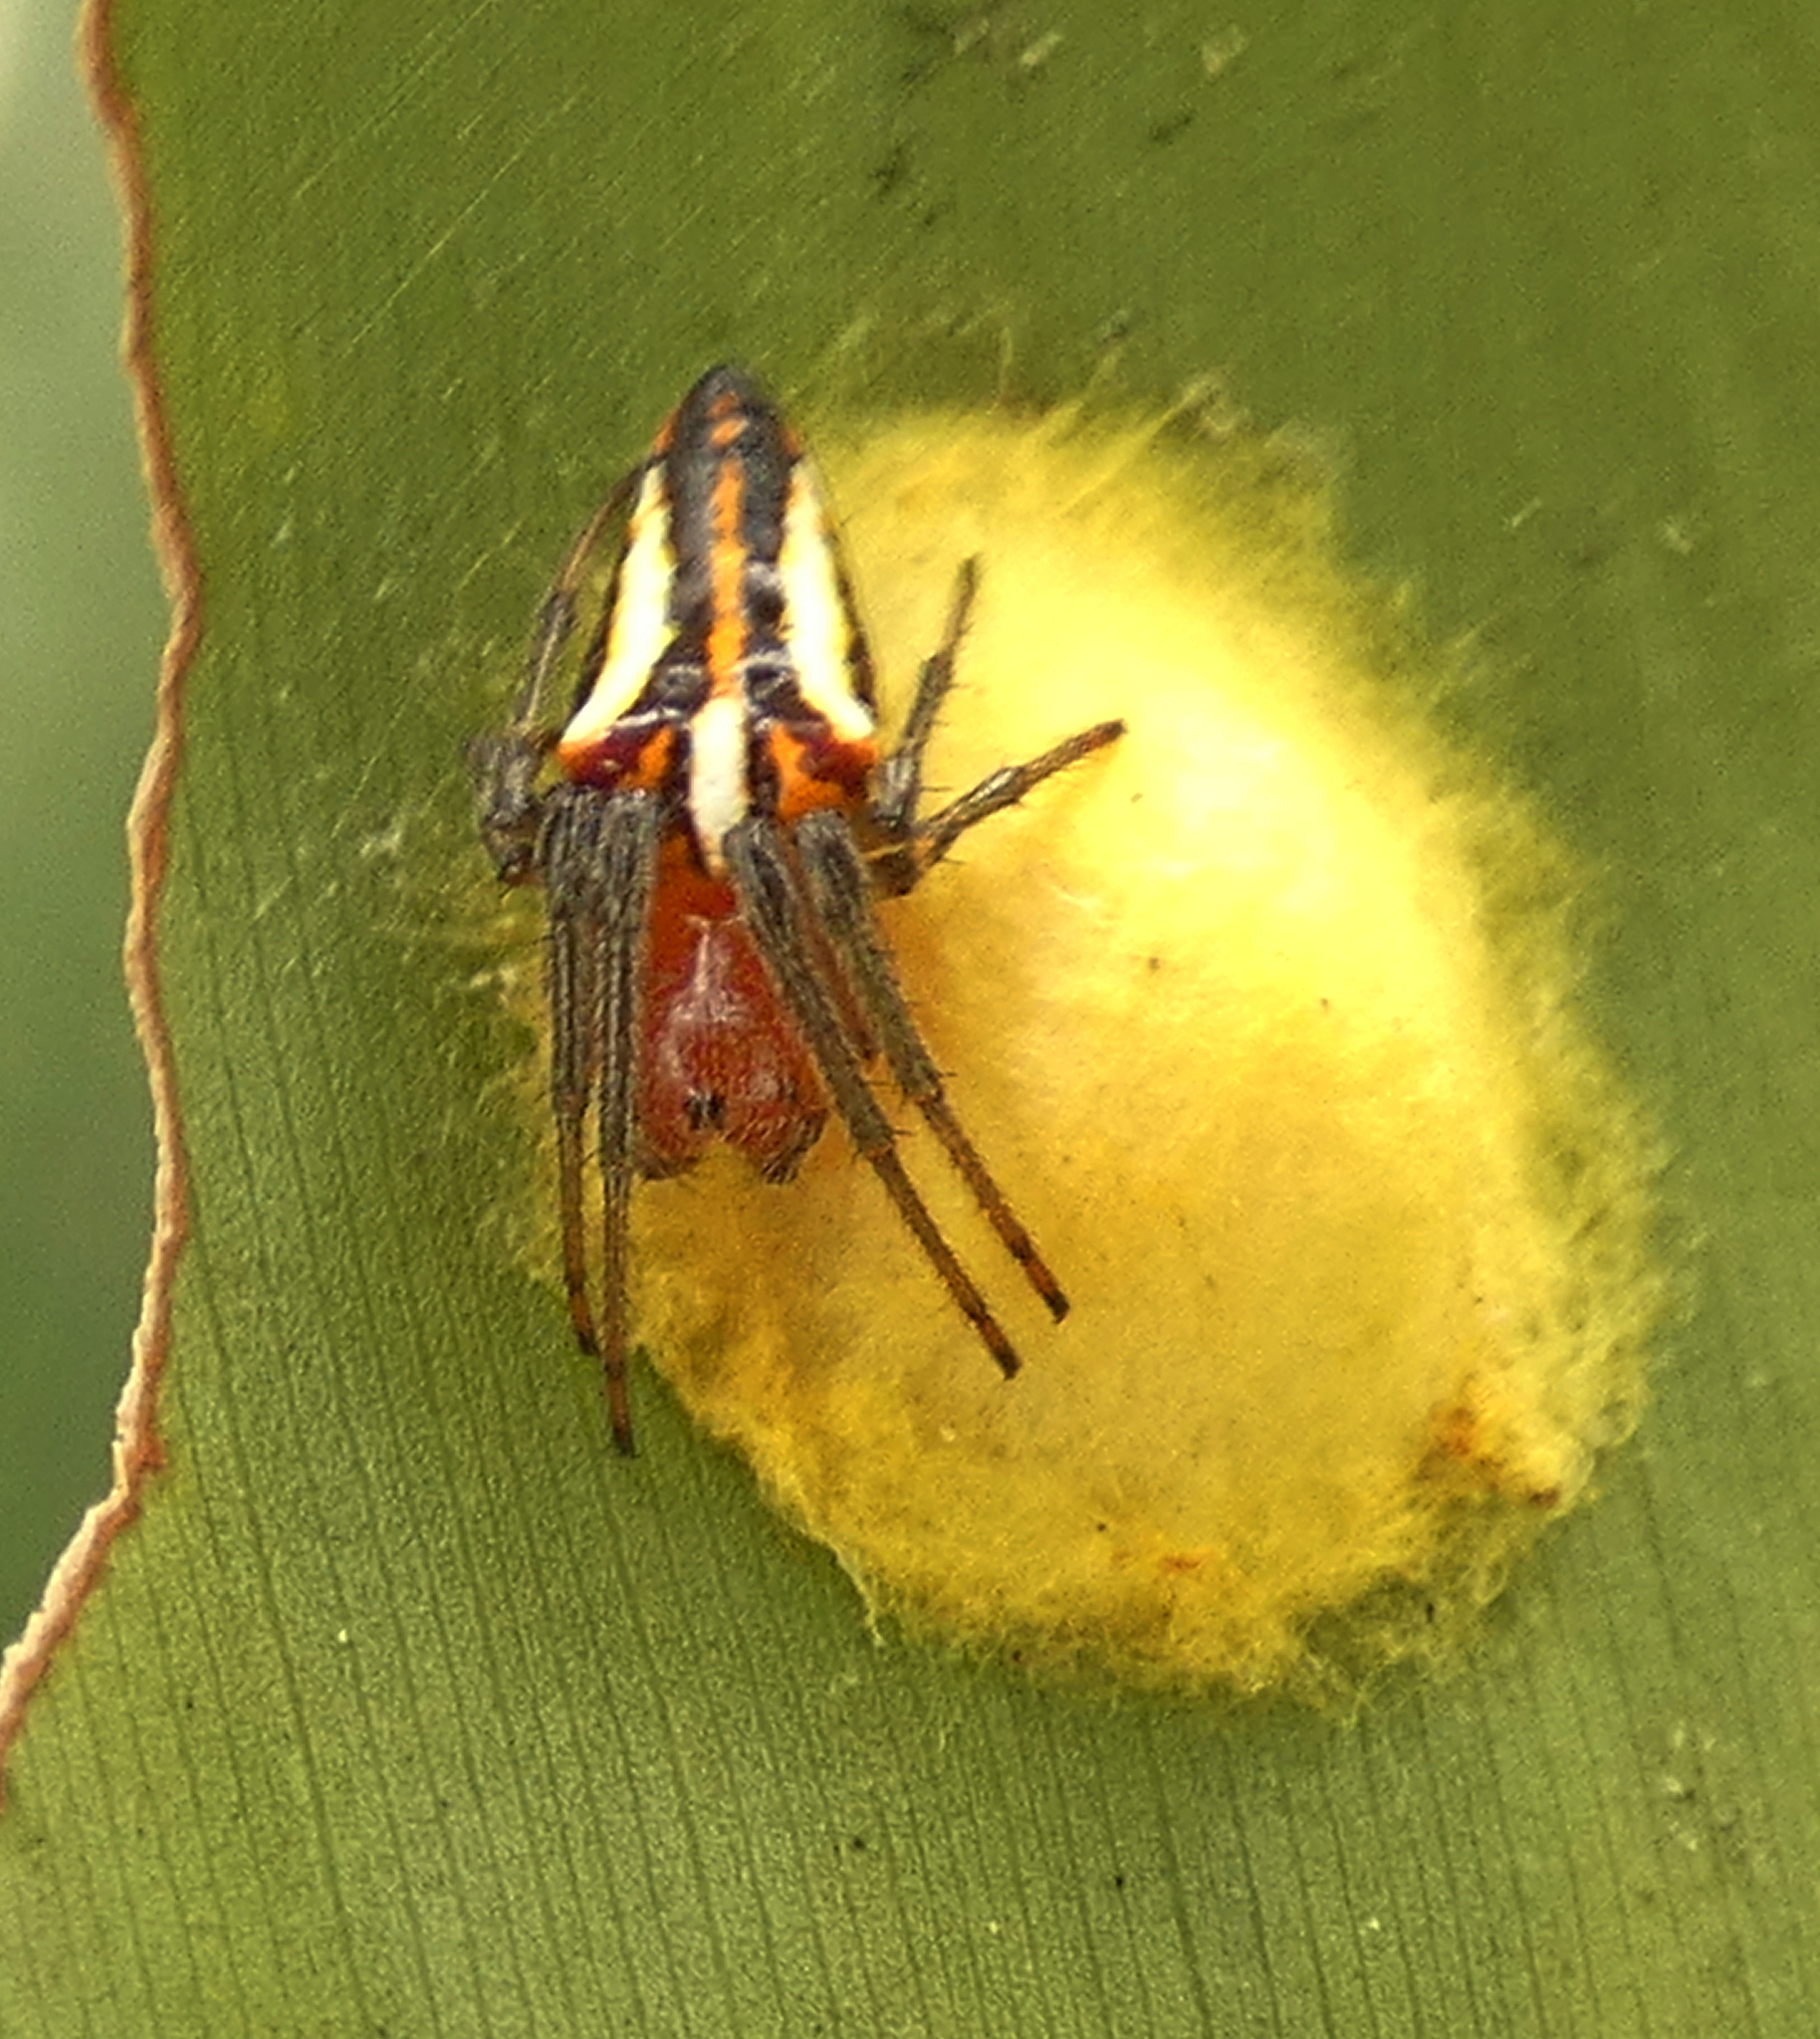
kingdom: Animalia
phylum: Arthropoda
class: Arachnida
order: Araneae
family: Araneidae
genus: Alpaida
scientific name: Alpaida bicornuta
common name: Orb weavers
